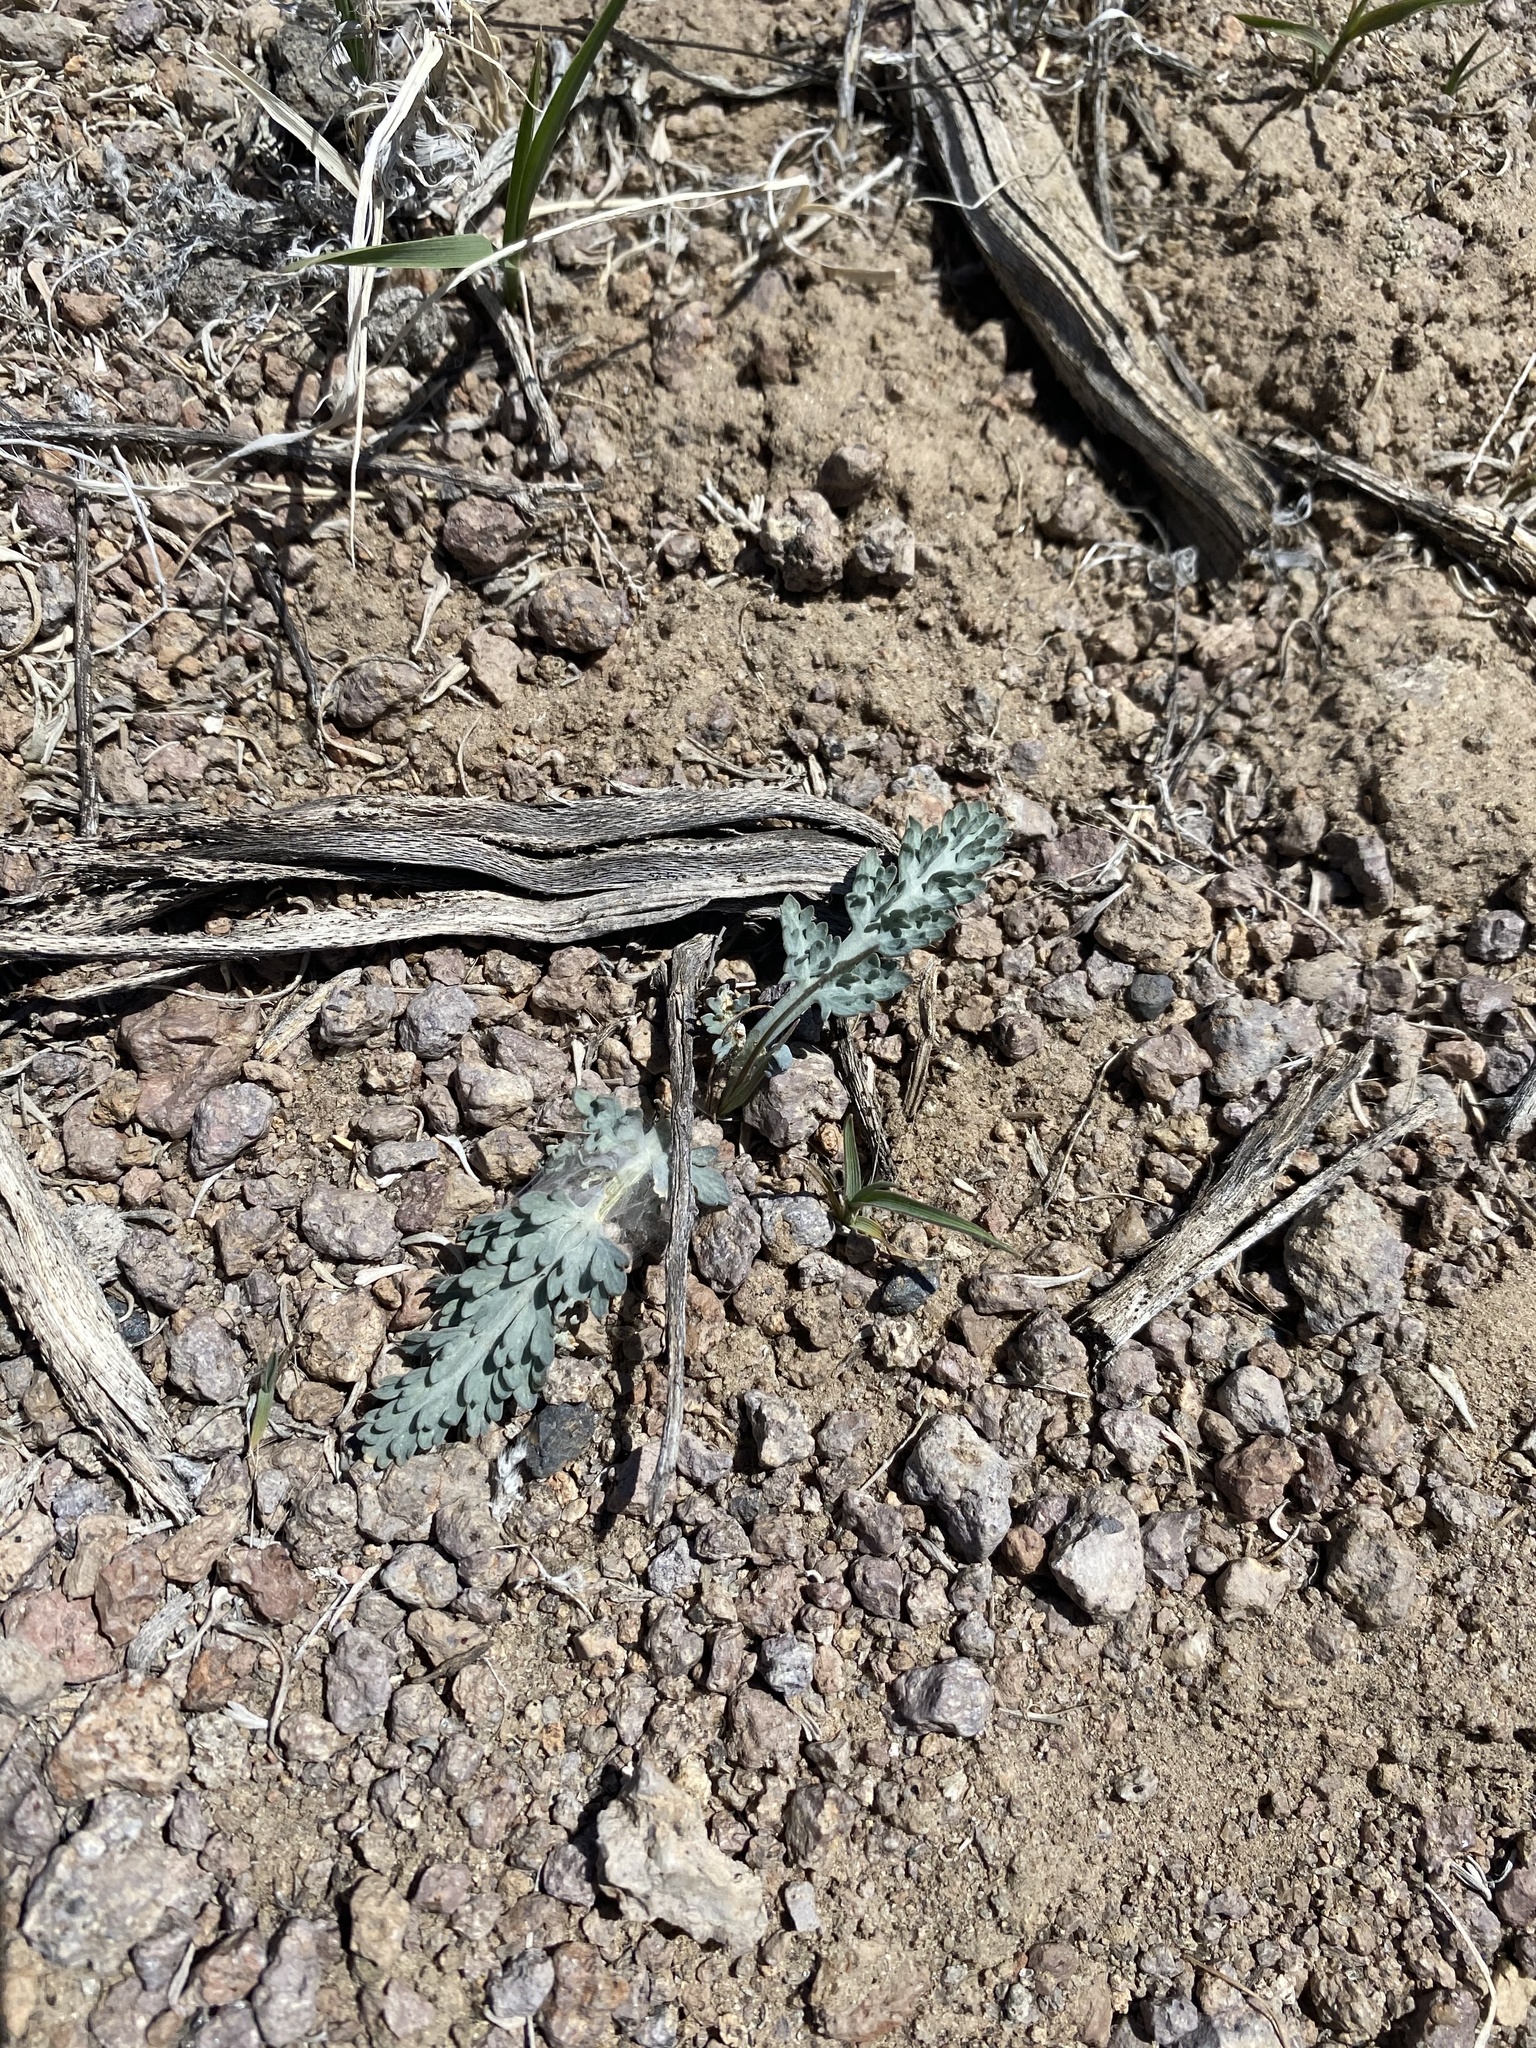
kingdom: Plantae
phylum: Tracheophyta
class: Magnoliopsida
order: Apiales
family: Apiaceae
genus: Vesper
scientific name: Vesper purpurascens
